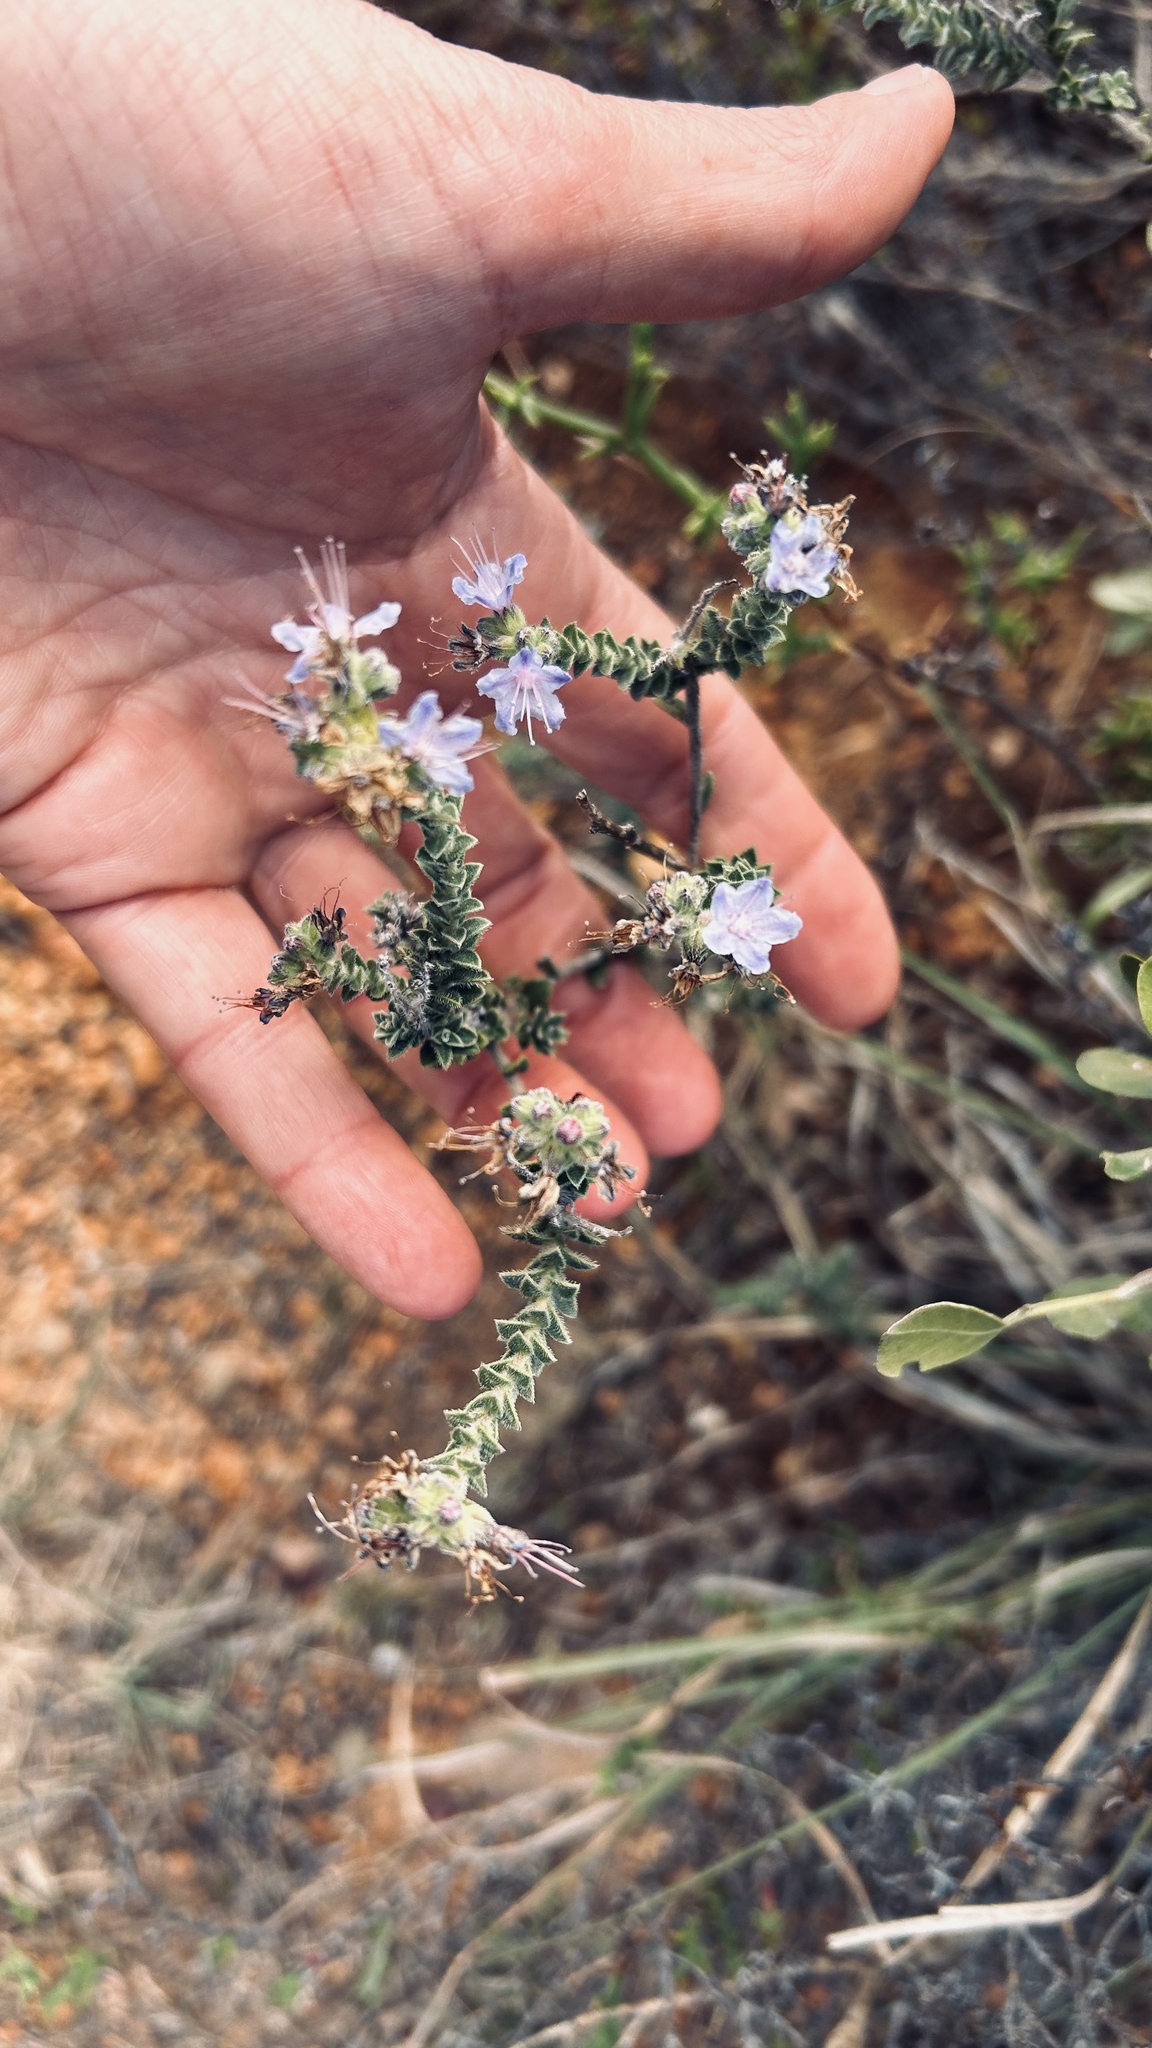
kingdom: Plantae
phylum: Tracheophyta
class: Magnoliopsida
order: Boraginales
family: Boraginaceae
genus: Lobostemon
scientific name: Lobostemon echioides
